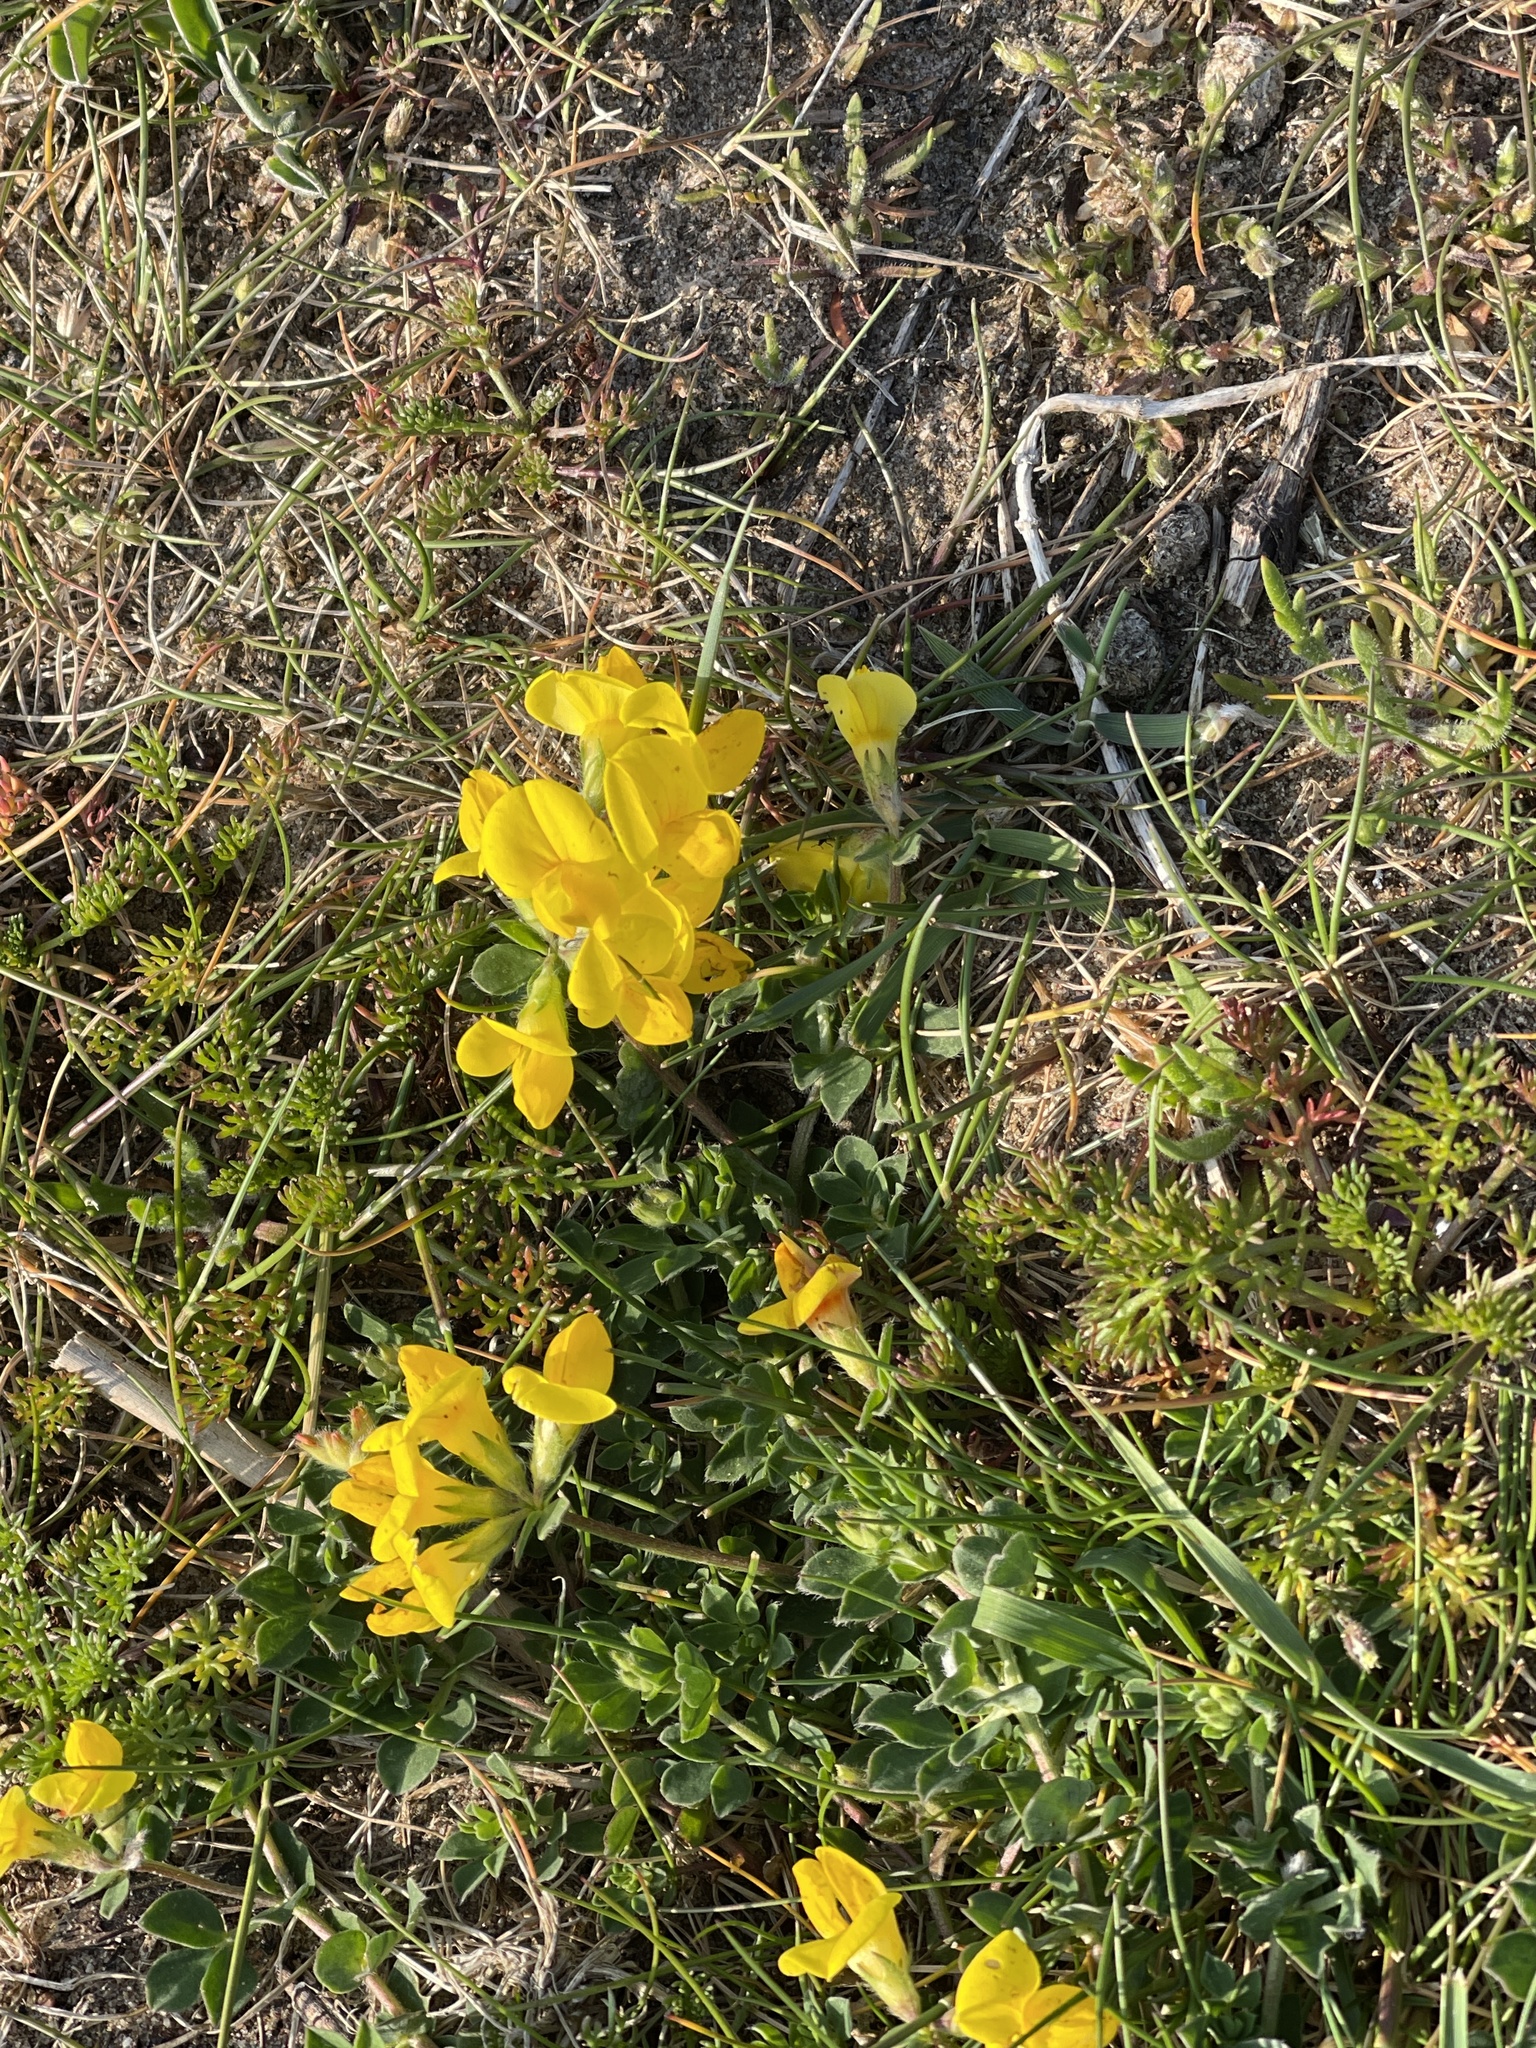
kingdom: Plantae
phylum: Tracheophyta
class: Magnoliopsida
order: Fabales
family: Fabaceae
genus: Lotus
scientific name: Lotus corniculatus
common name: Common bird's-foot-trefoil
